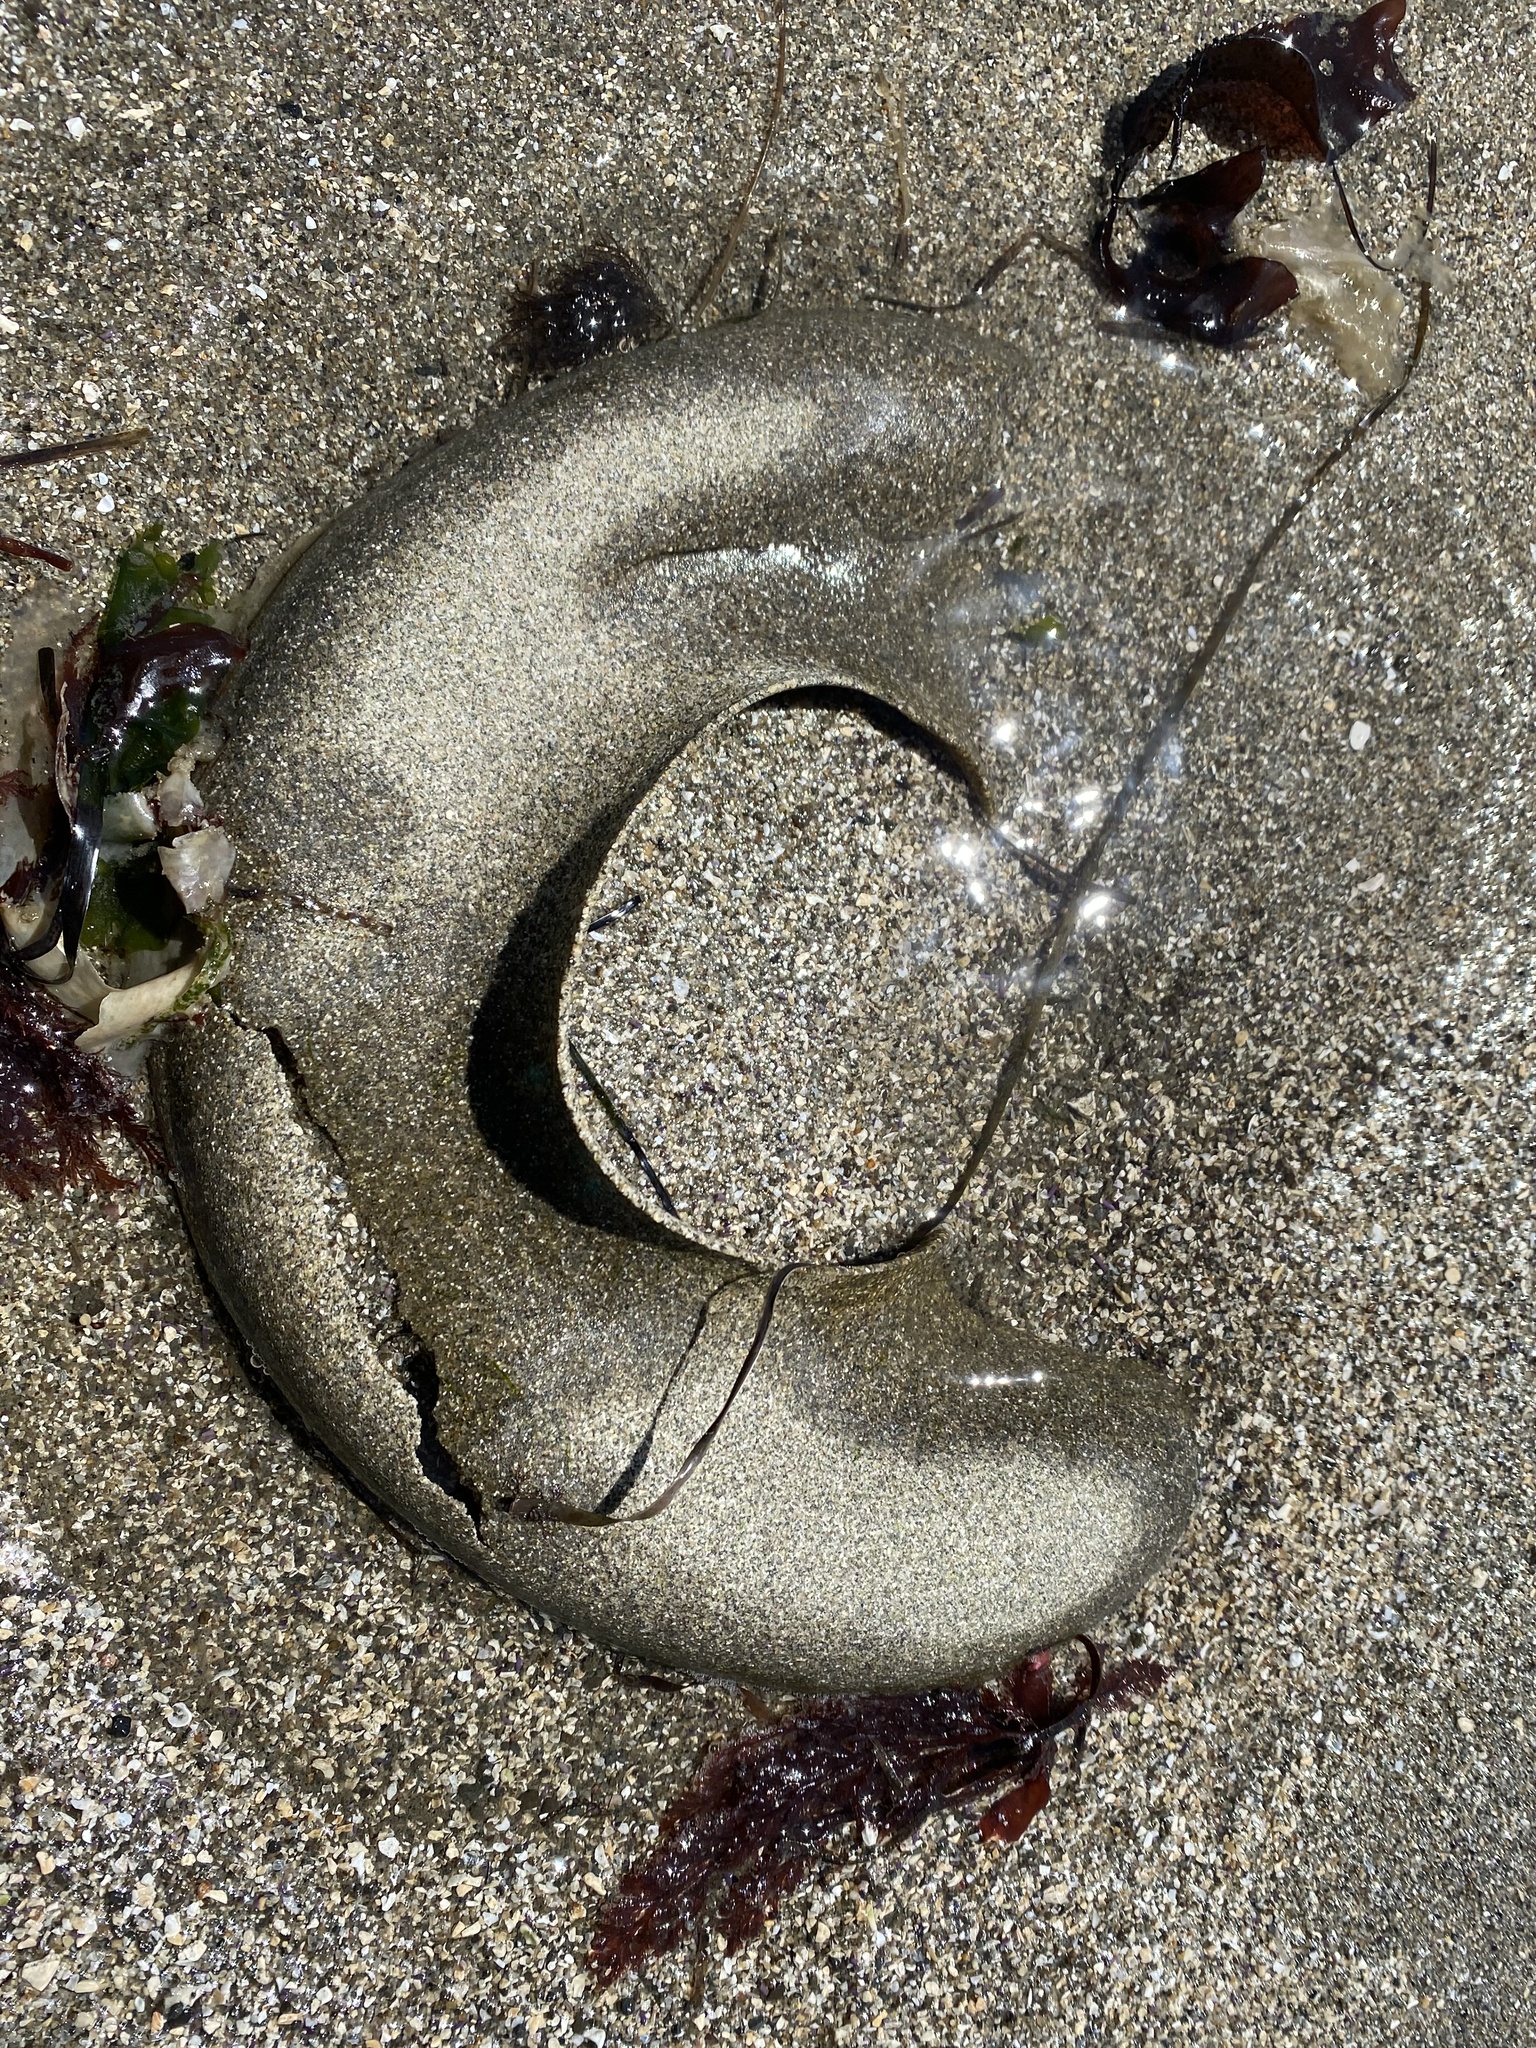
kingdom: Animalia
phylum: Mollusca
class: Gastropoda
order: Littorinimorpha
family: Naticidae
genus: Neverita
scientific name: Neverita lewisii
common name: Lewis' moonsnail
